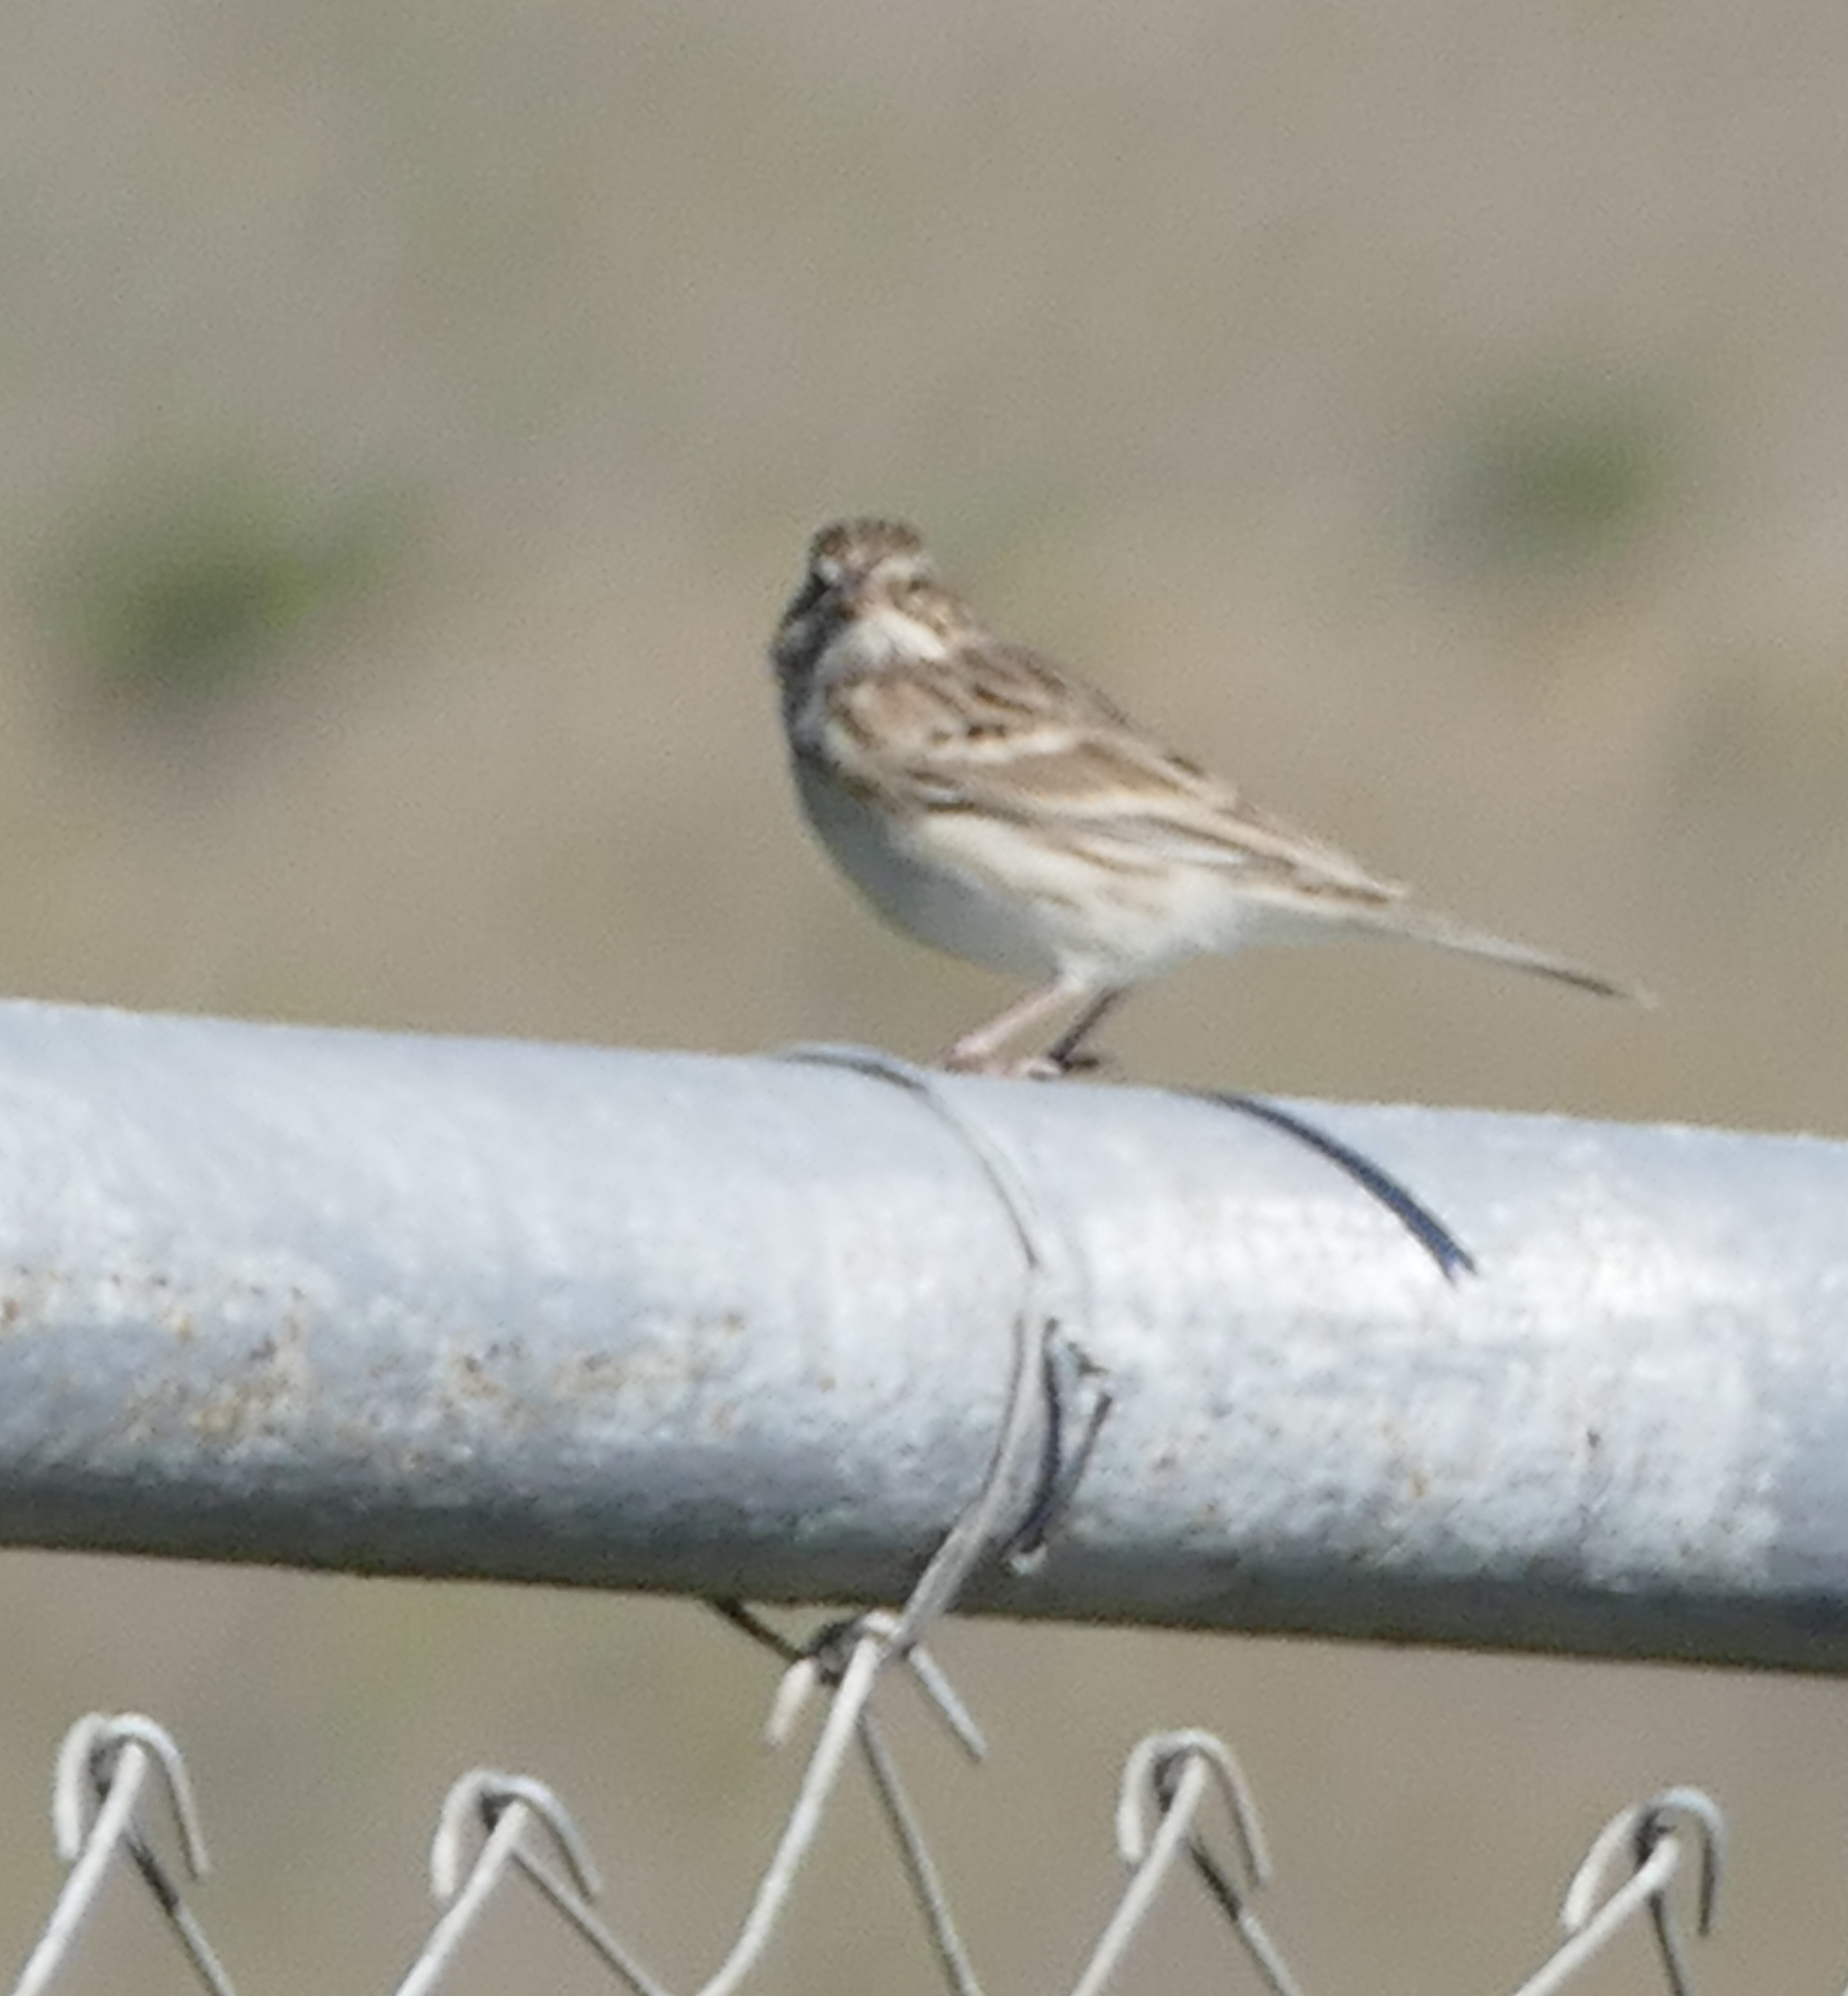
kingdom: Animalia
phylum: Chordata
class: Aves
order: Passeriformes
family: Passerellidae
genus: Pooecetes
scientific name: Pooecetes gramineus
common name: Vesper sparrow
